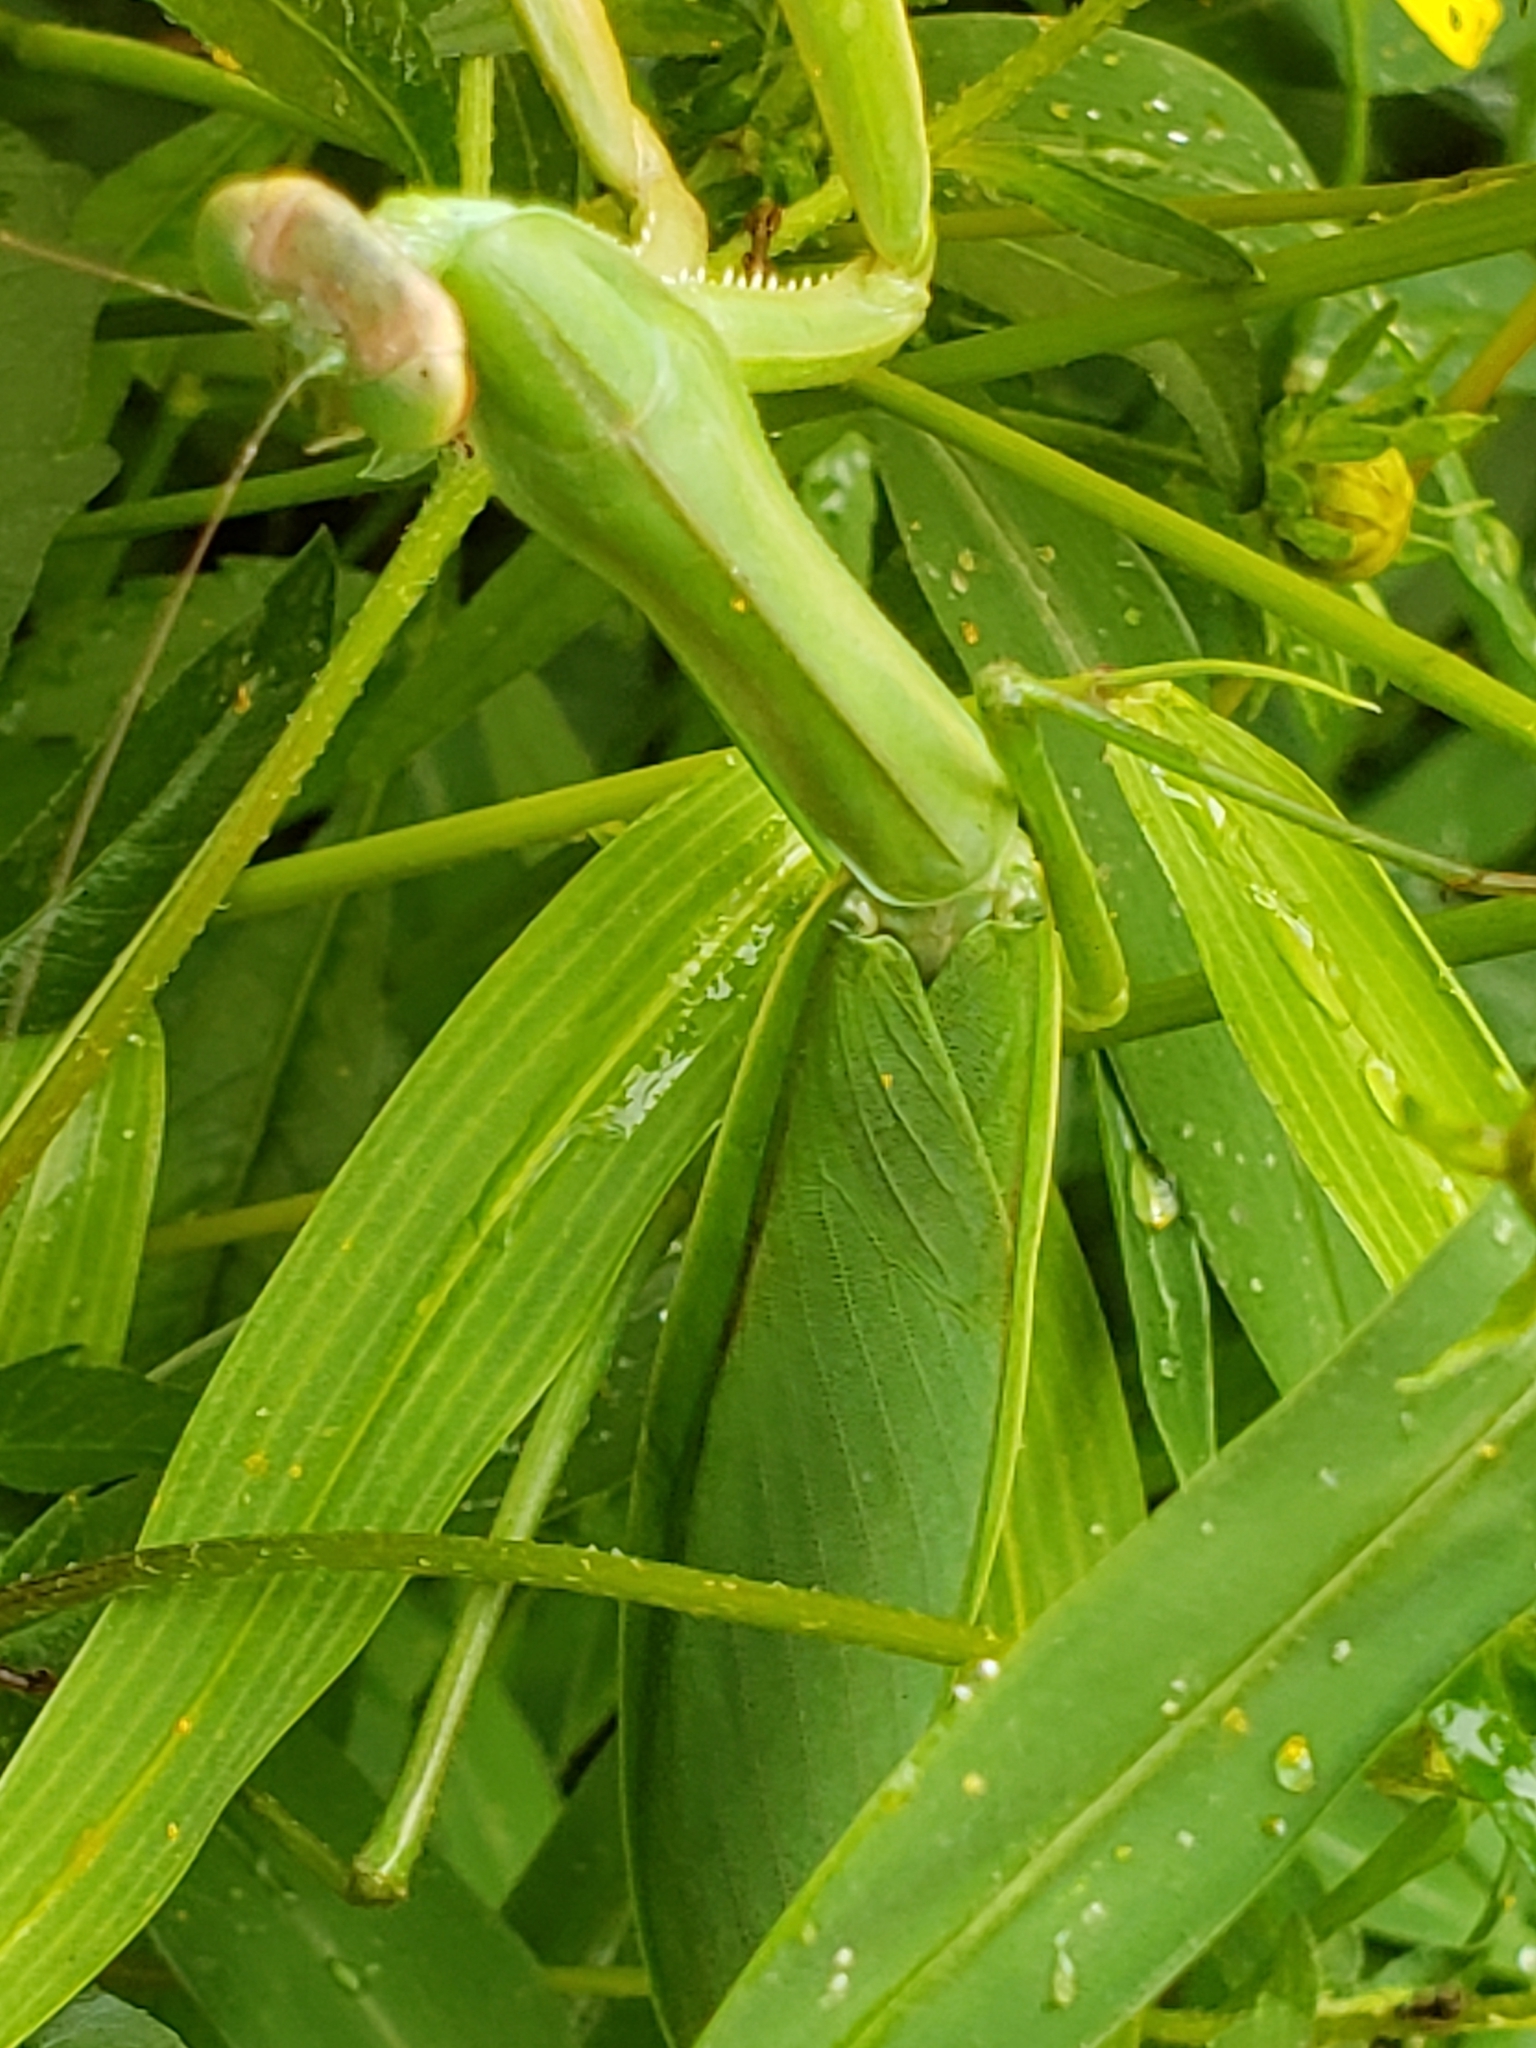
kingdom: Animalia
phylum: Arthropoda
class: Insecta
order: Mantodea
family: Mantidae
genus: Tenodera
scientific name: Tenodera sinensis
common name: Chinese mantis
